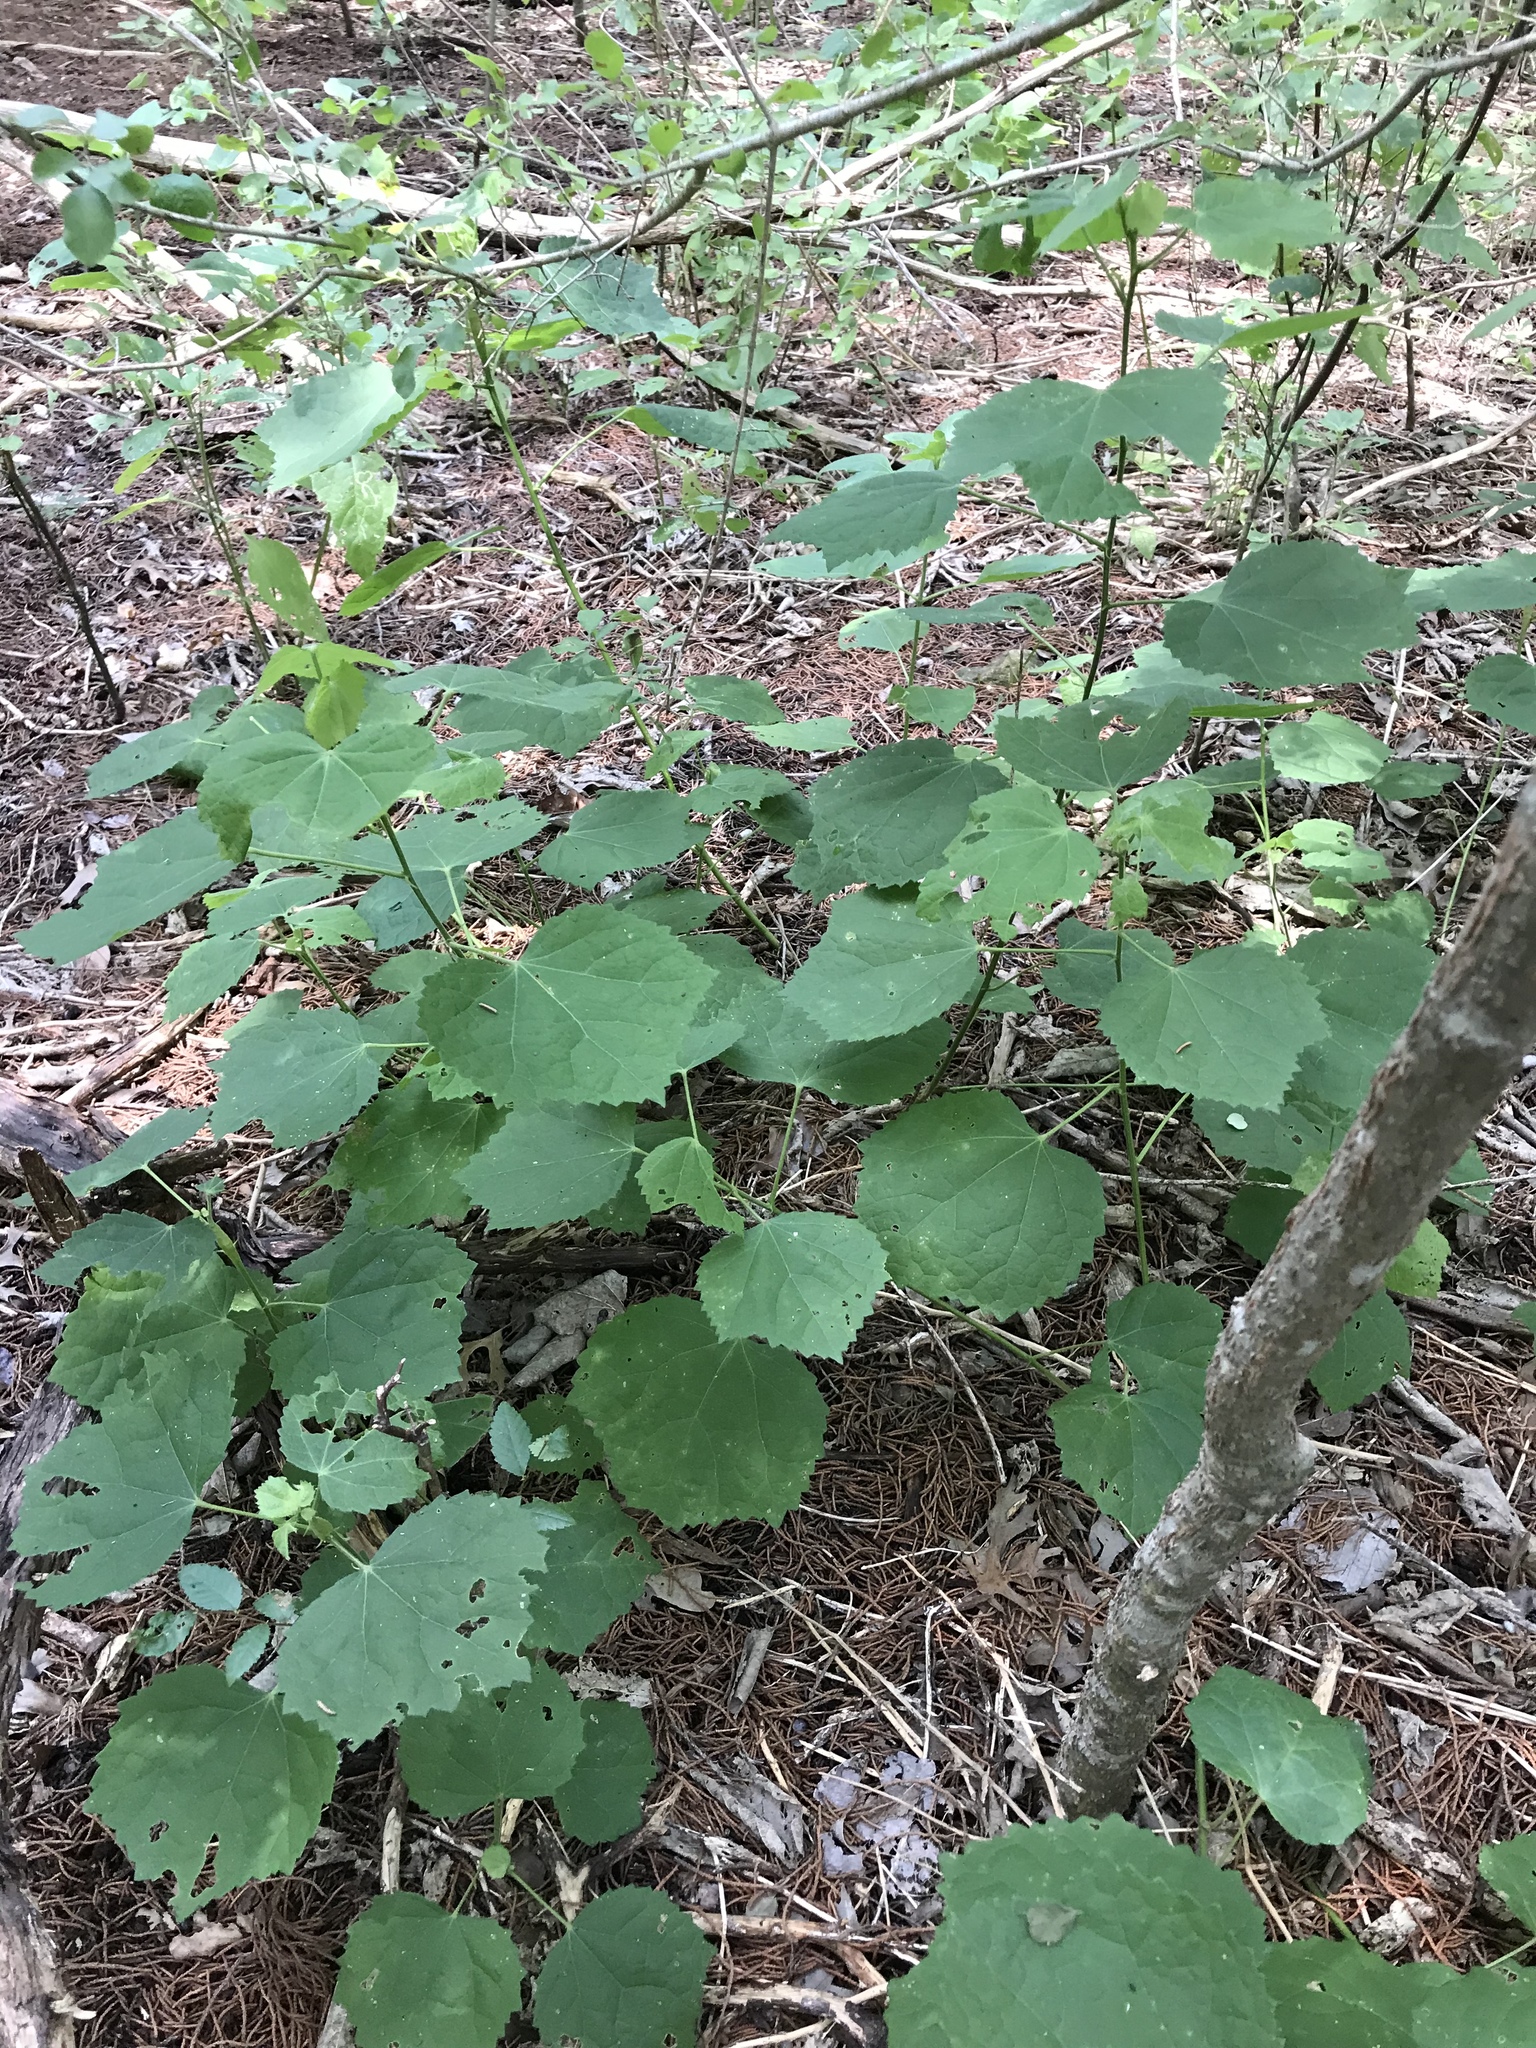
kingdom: Plantae
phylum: Tracheophyta
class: Magnoliopsida
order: Malvales
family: Malvaceae
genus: Malvaviscus
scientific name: Malvaviscus arboreus
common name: Wax mallow
